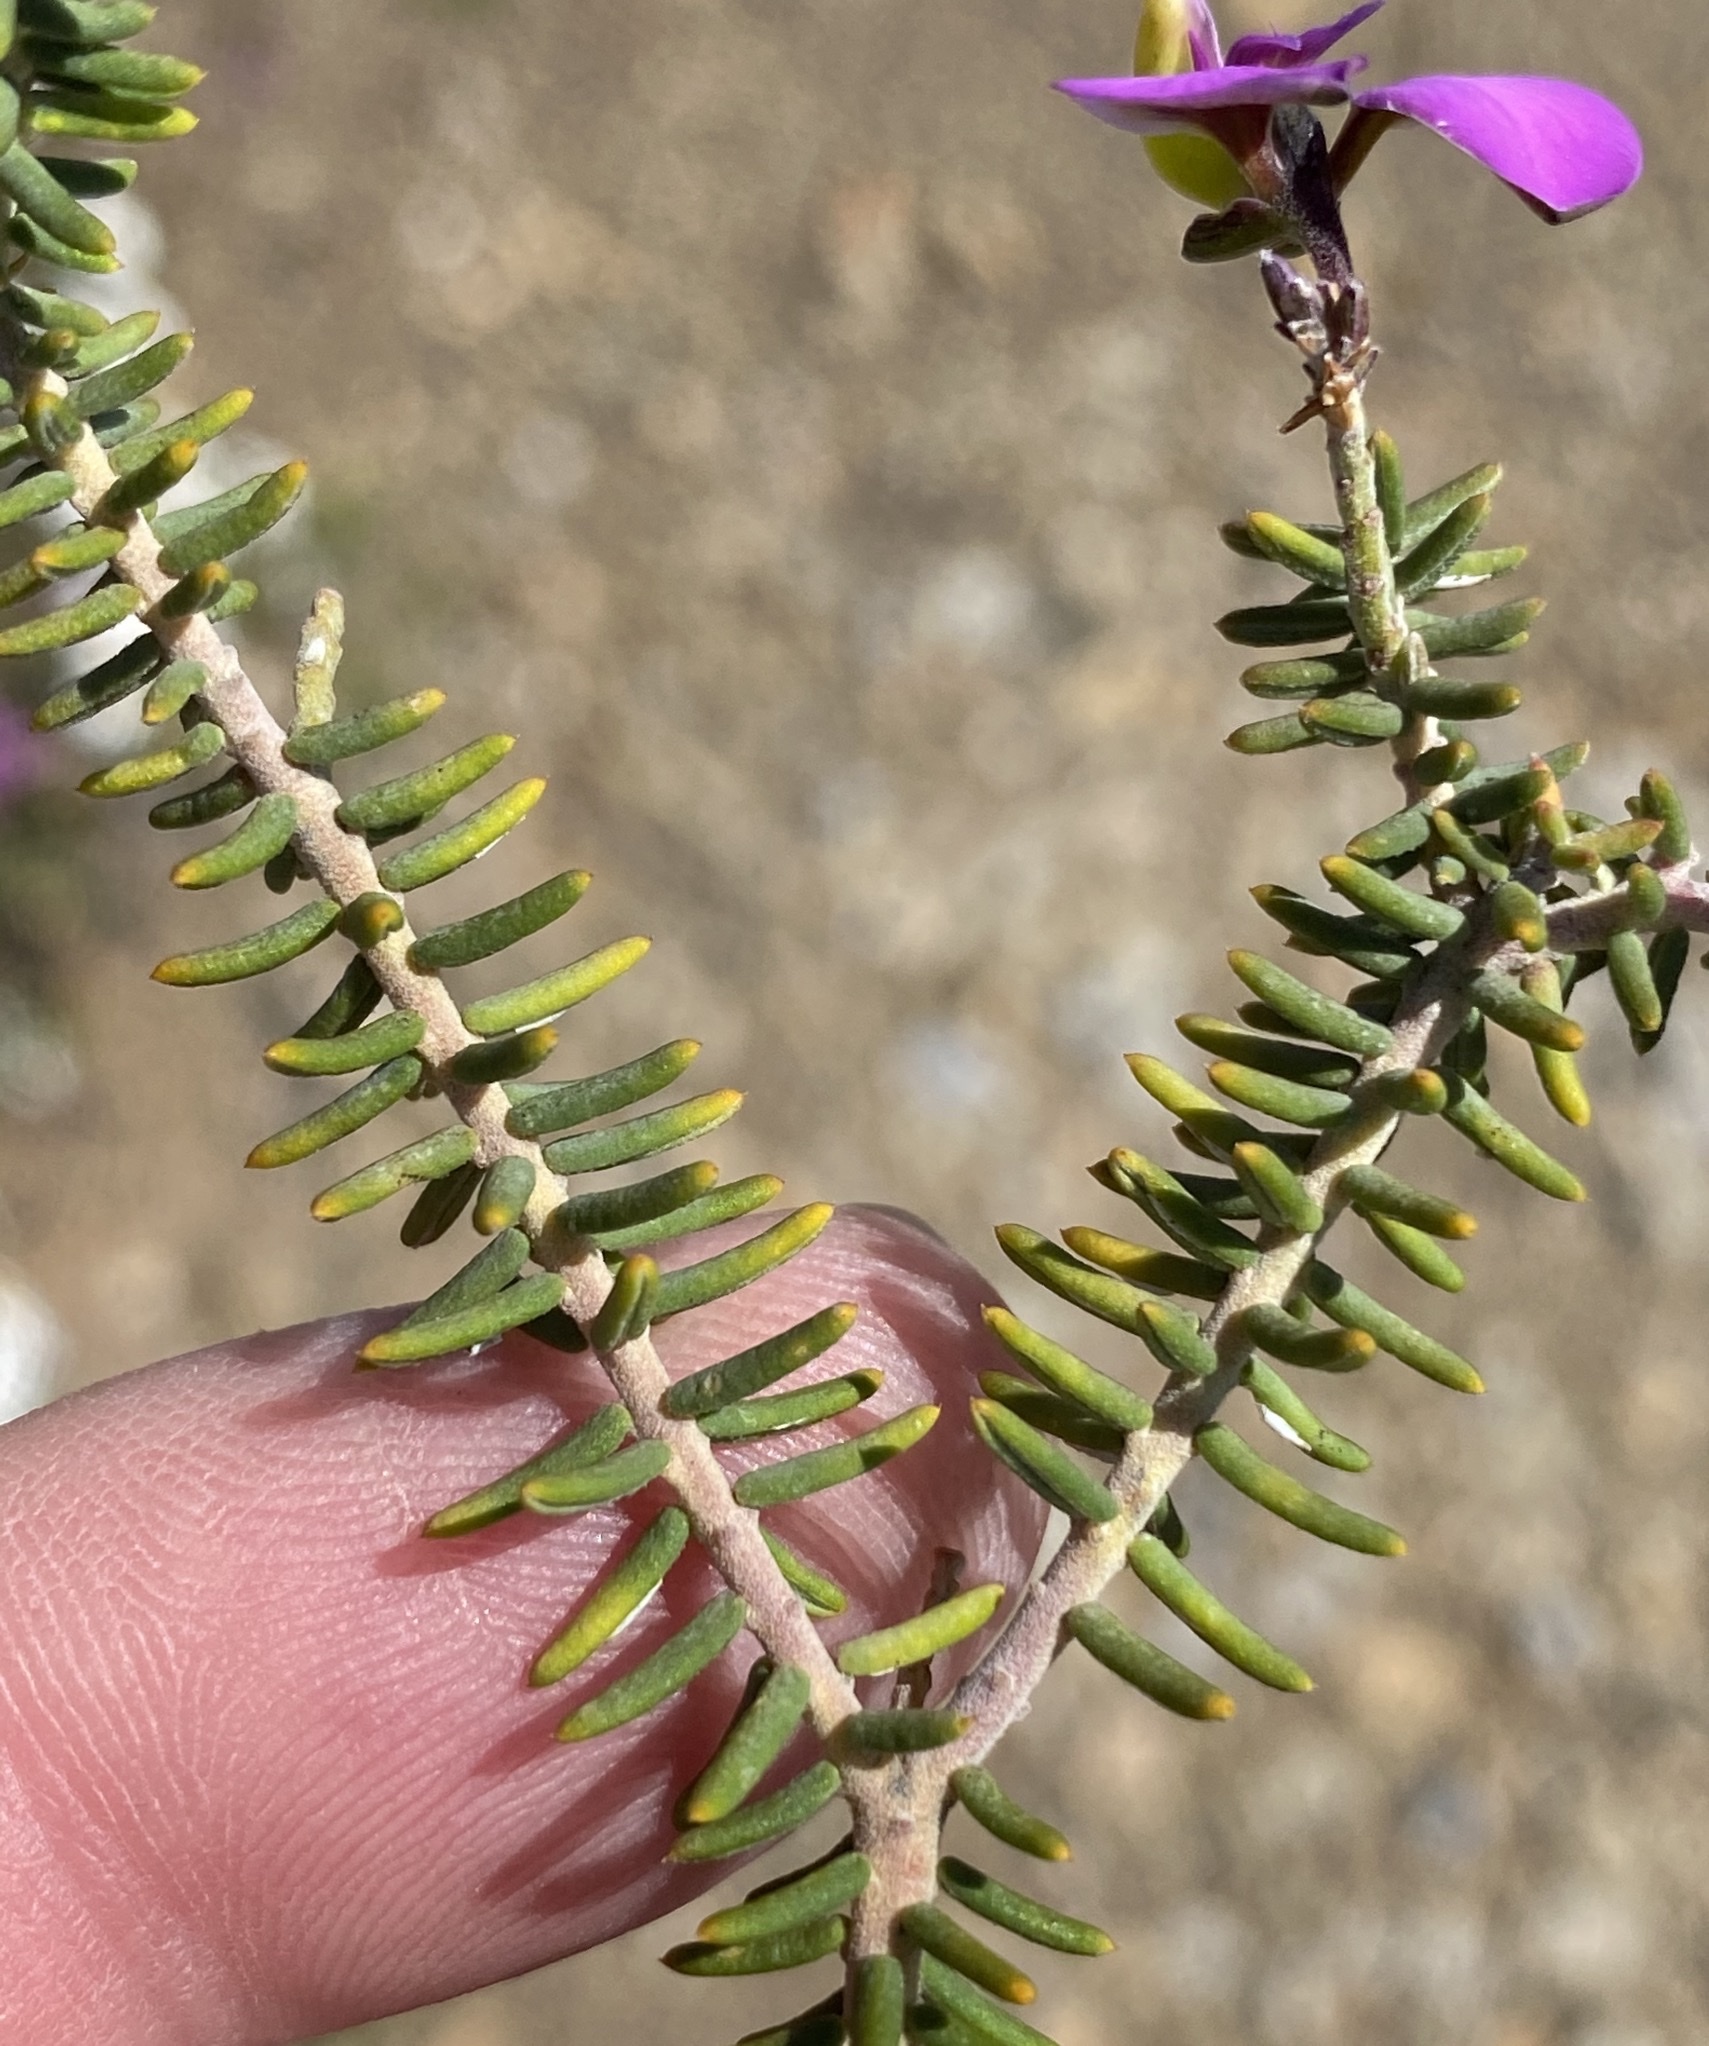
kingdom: Plantae
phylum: Tracheophyta
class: Magnoliopsida
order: Fabales
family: Polygalaceae
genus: Polygala
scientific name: Polygala teretifolia
